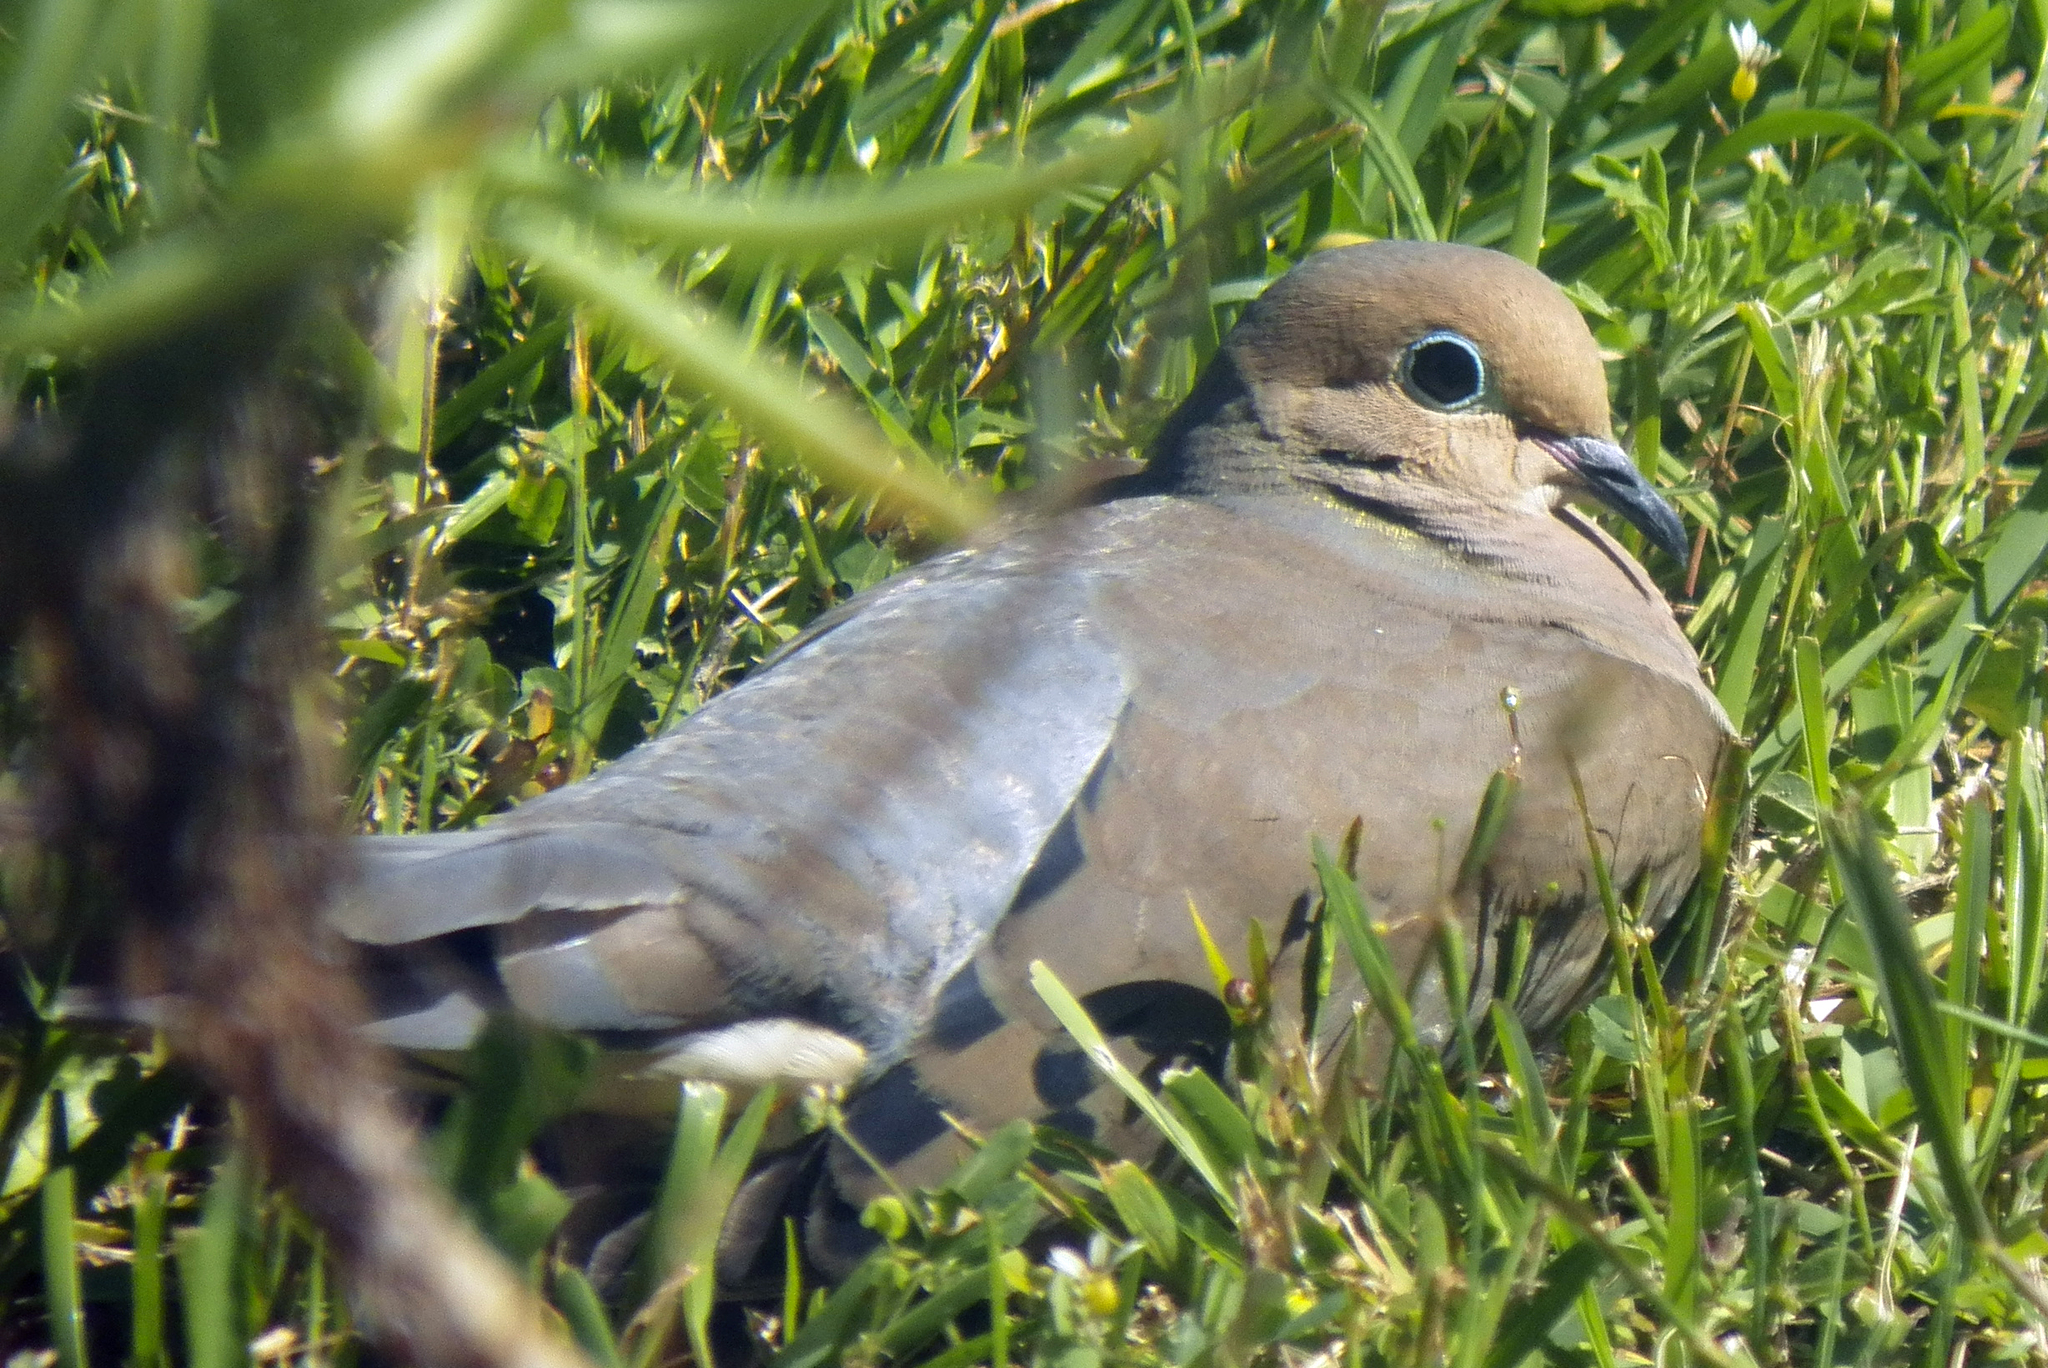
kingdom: Animalia
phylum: Chordata
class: Aves
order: Columbiformes
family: Columbidae
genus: Zenaida
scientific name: Zenaida macroura
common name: Mourning dove
